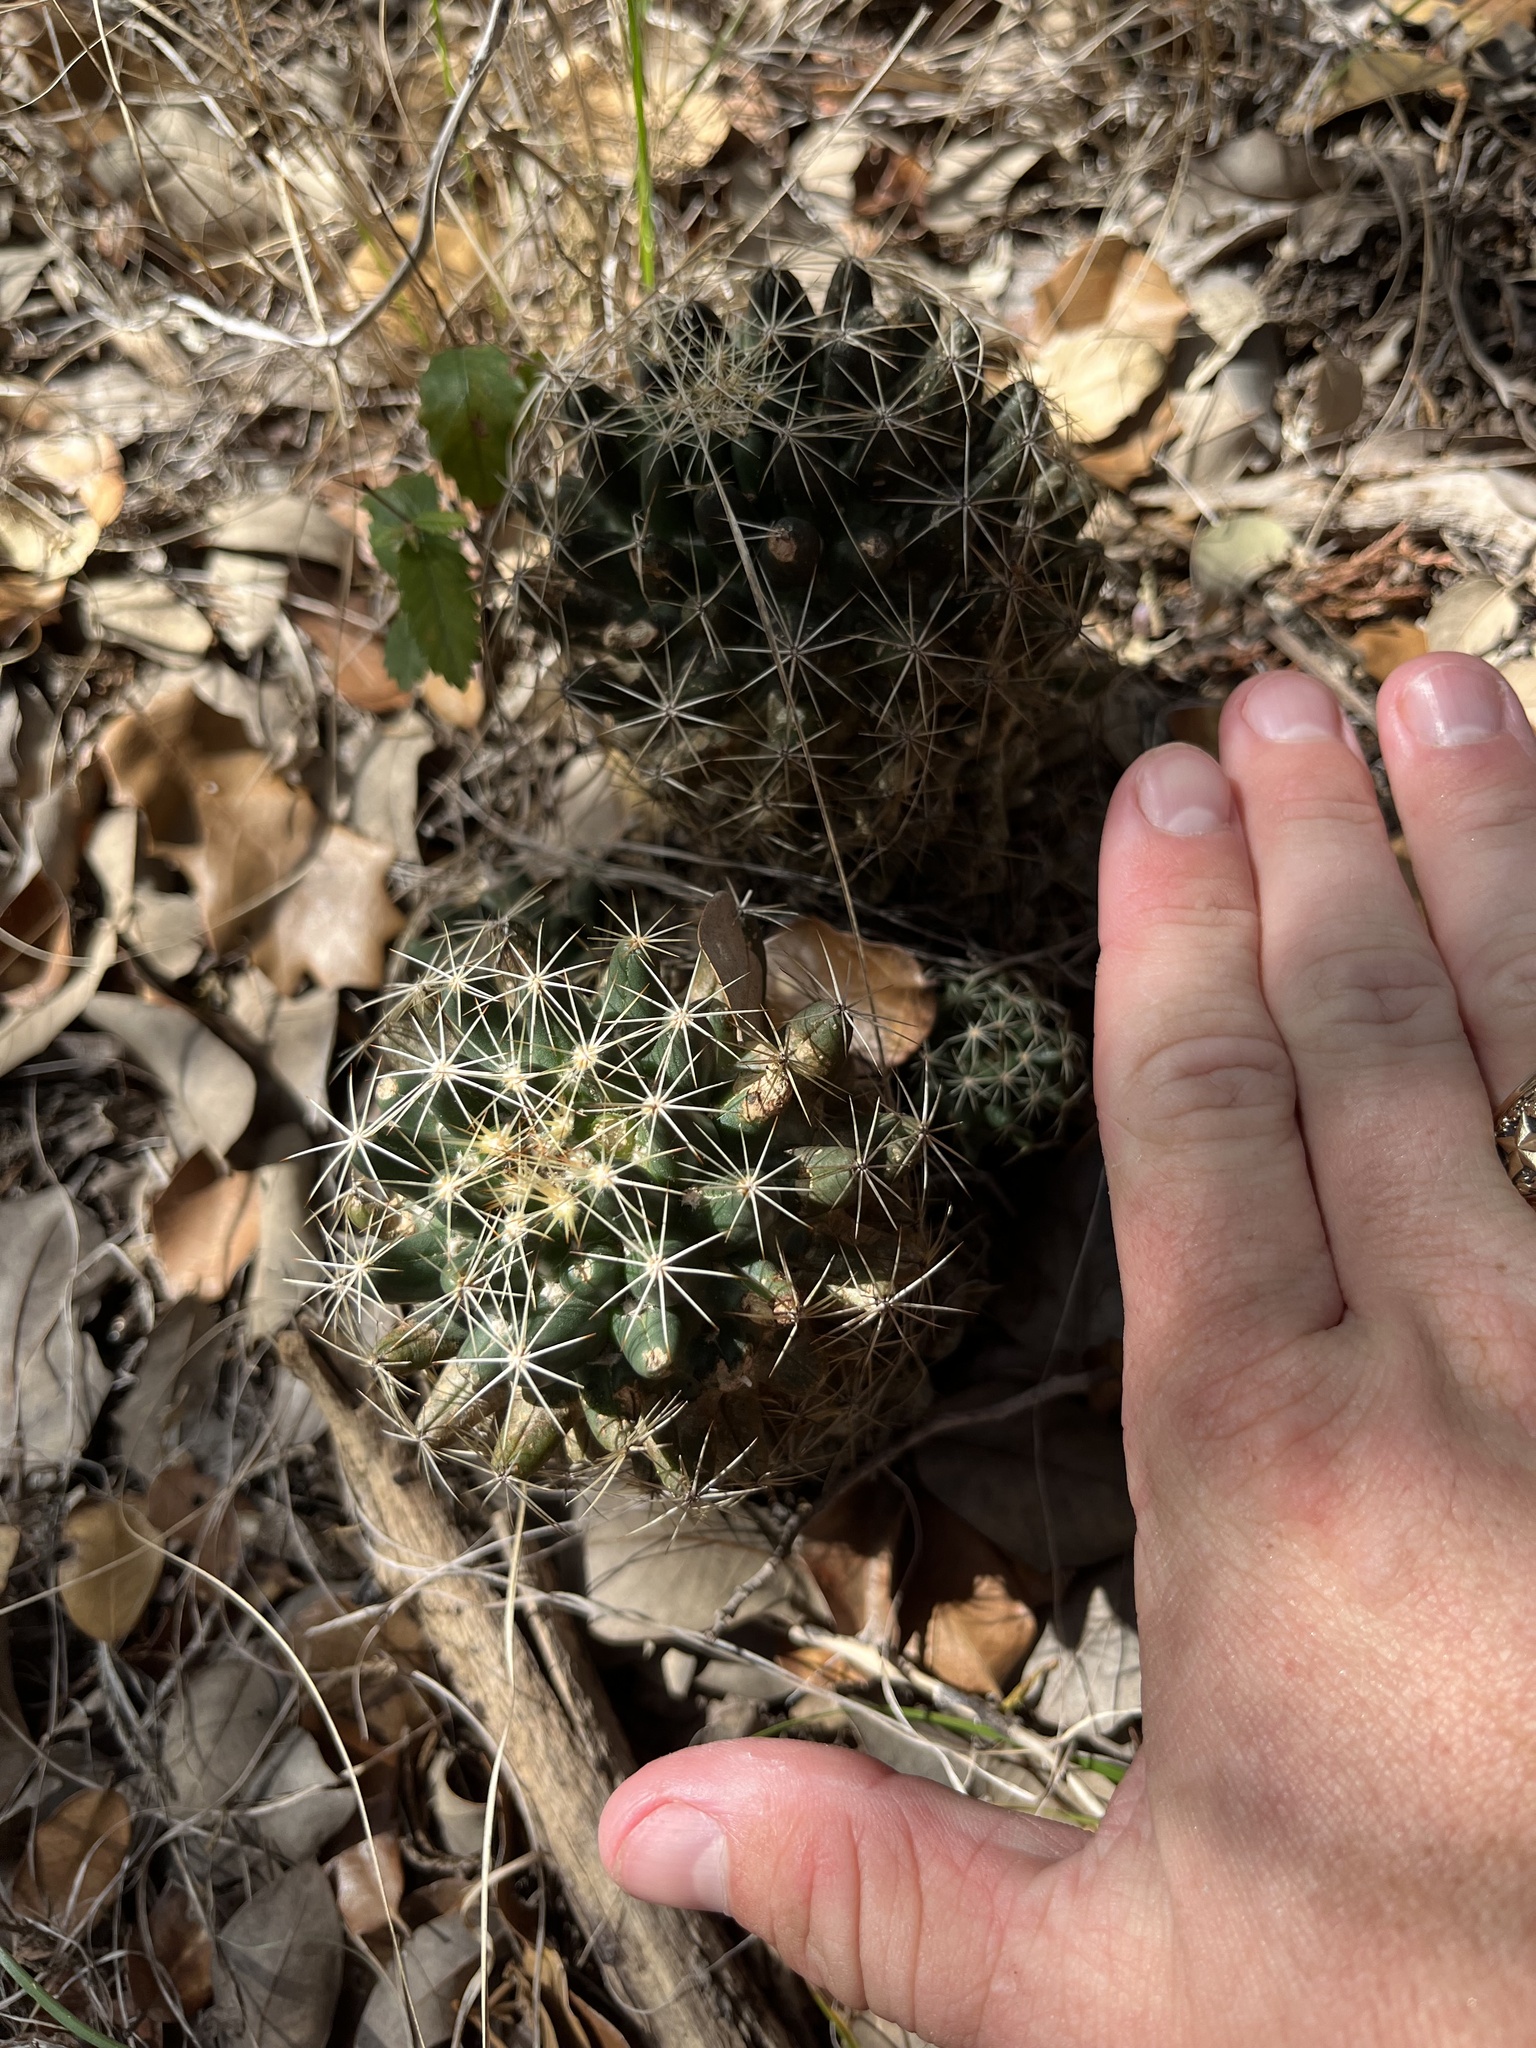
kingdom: Plantae
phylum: Tracheophyta
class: Magnoliopsida
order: Caryophyllales
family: Cactaceae
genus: Coryphantha
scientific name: Coryphantha sulcata
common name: Finger cactus
